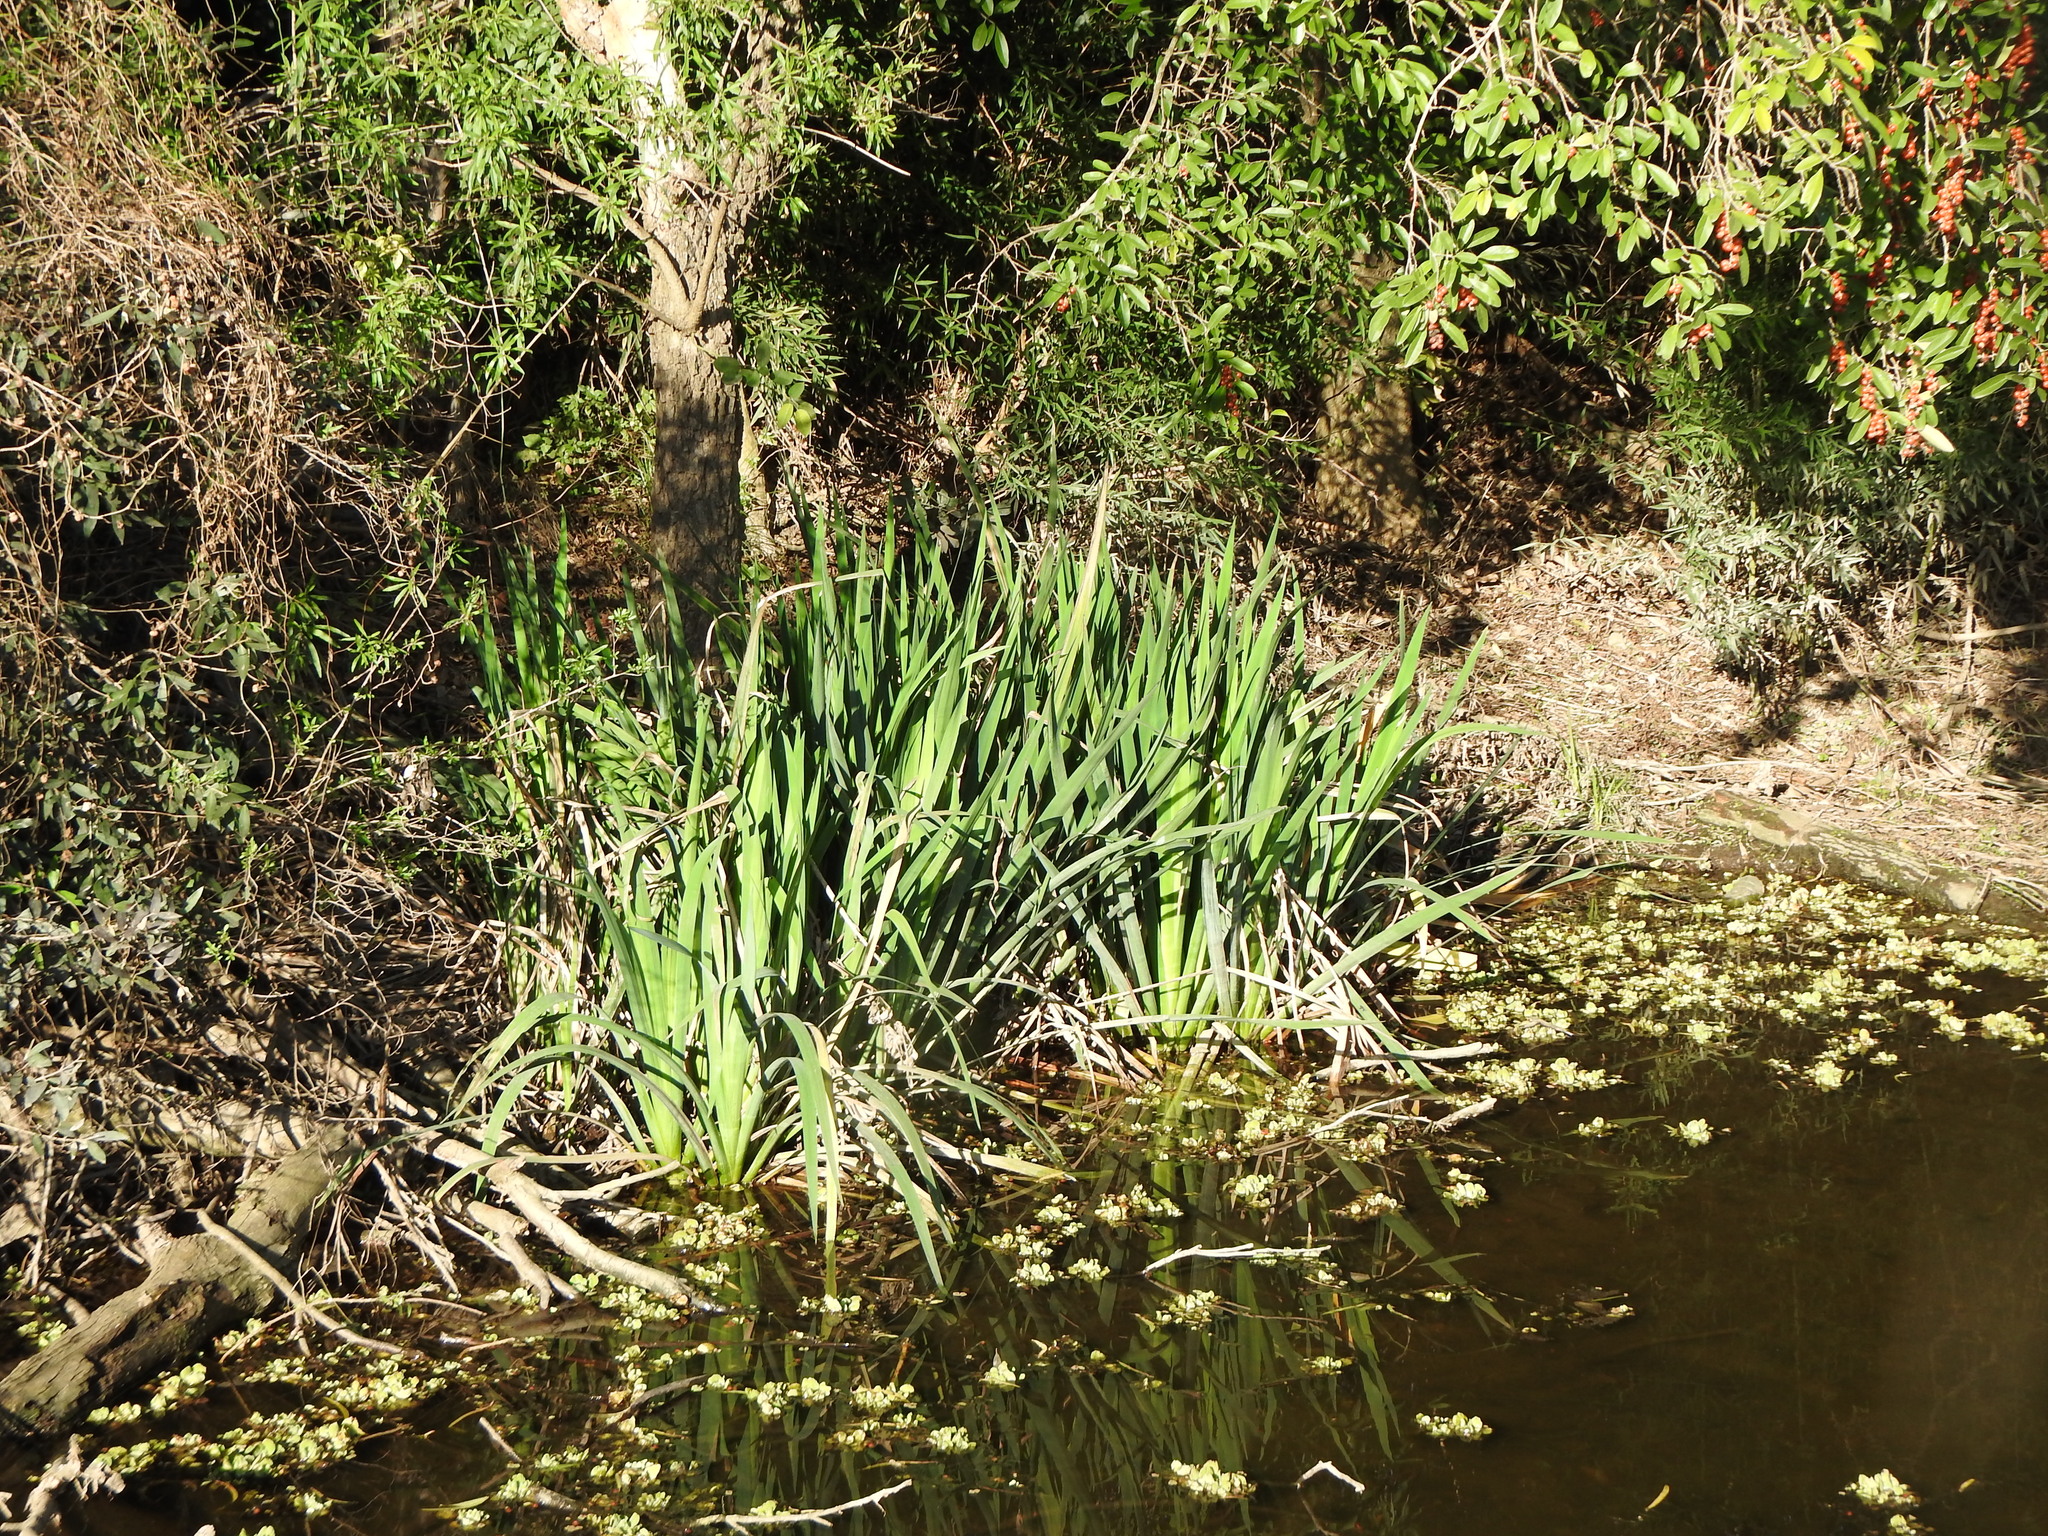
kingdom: Plantae
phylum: Tracheophyta
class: Liliopsida
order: Asparagales
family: Iridaceae
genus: Iris
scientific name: Iris pseudacorus
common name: Yellow flag
